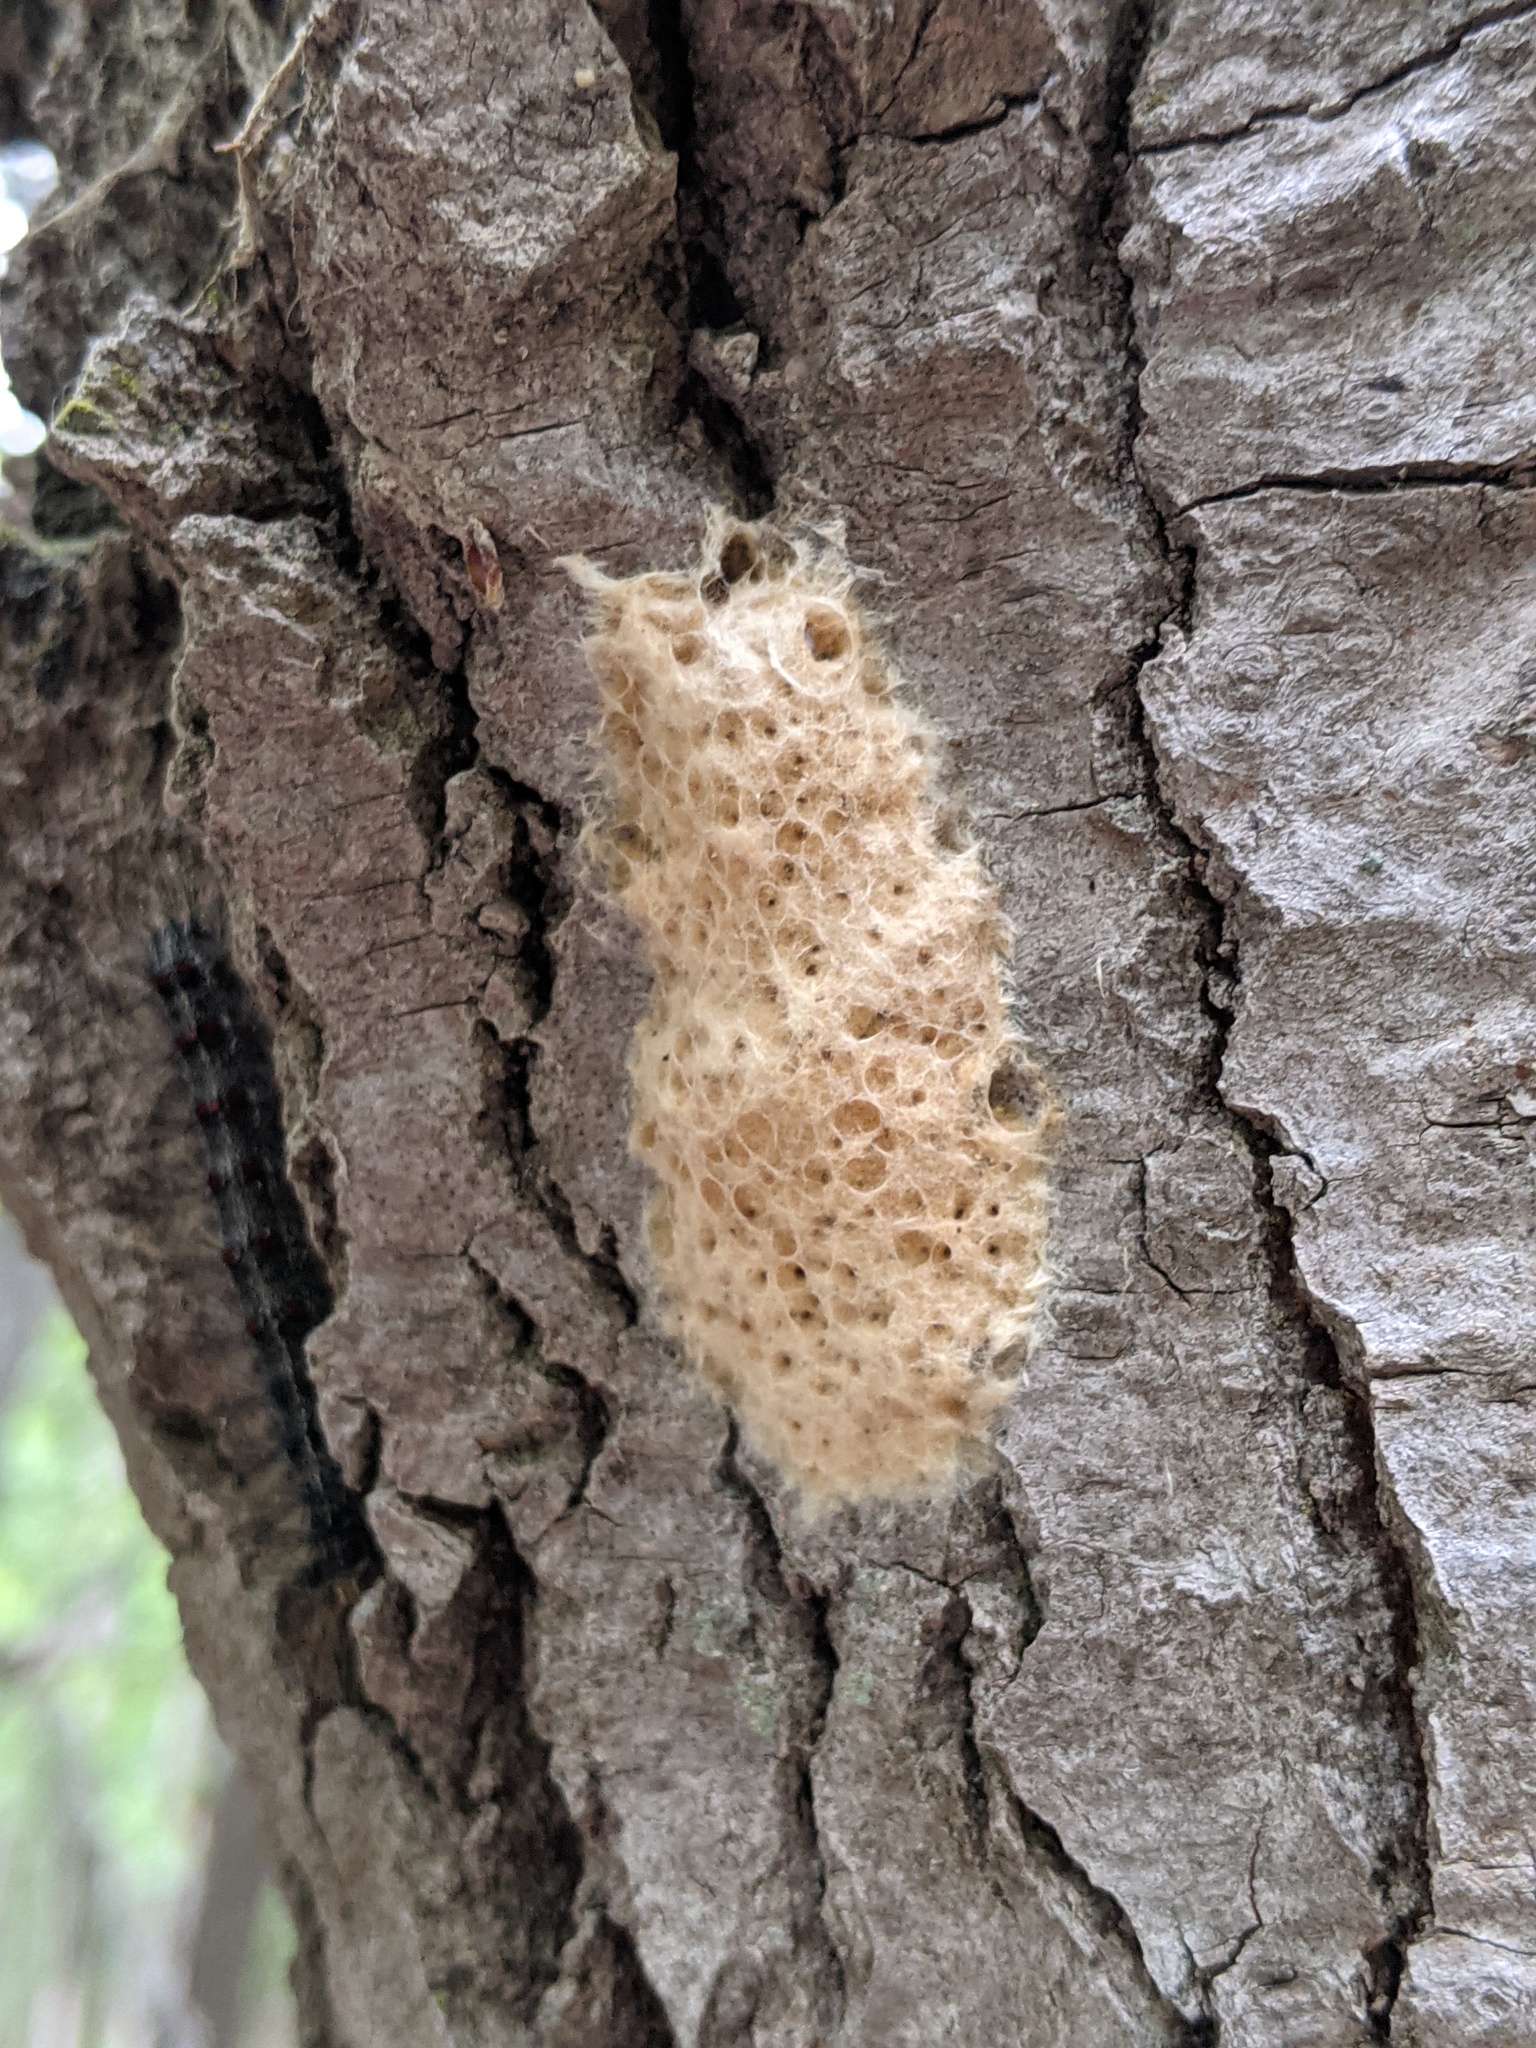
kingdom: Animalia
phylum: Arthropoda
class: Insecta
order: Lepidoptera
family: Erebidae
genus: Lymantria
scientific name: Lymantria dispar
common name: Gypsy moth
